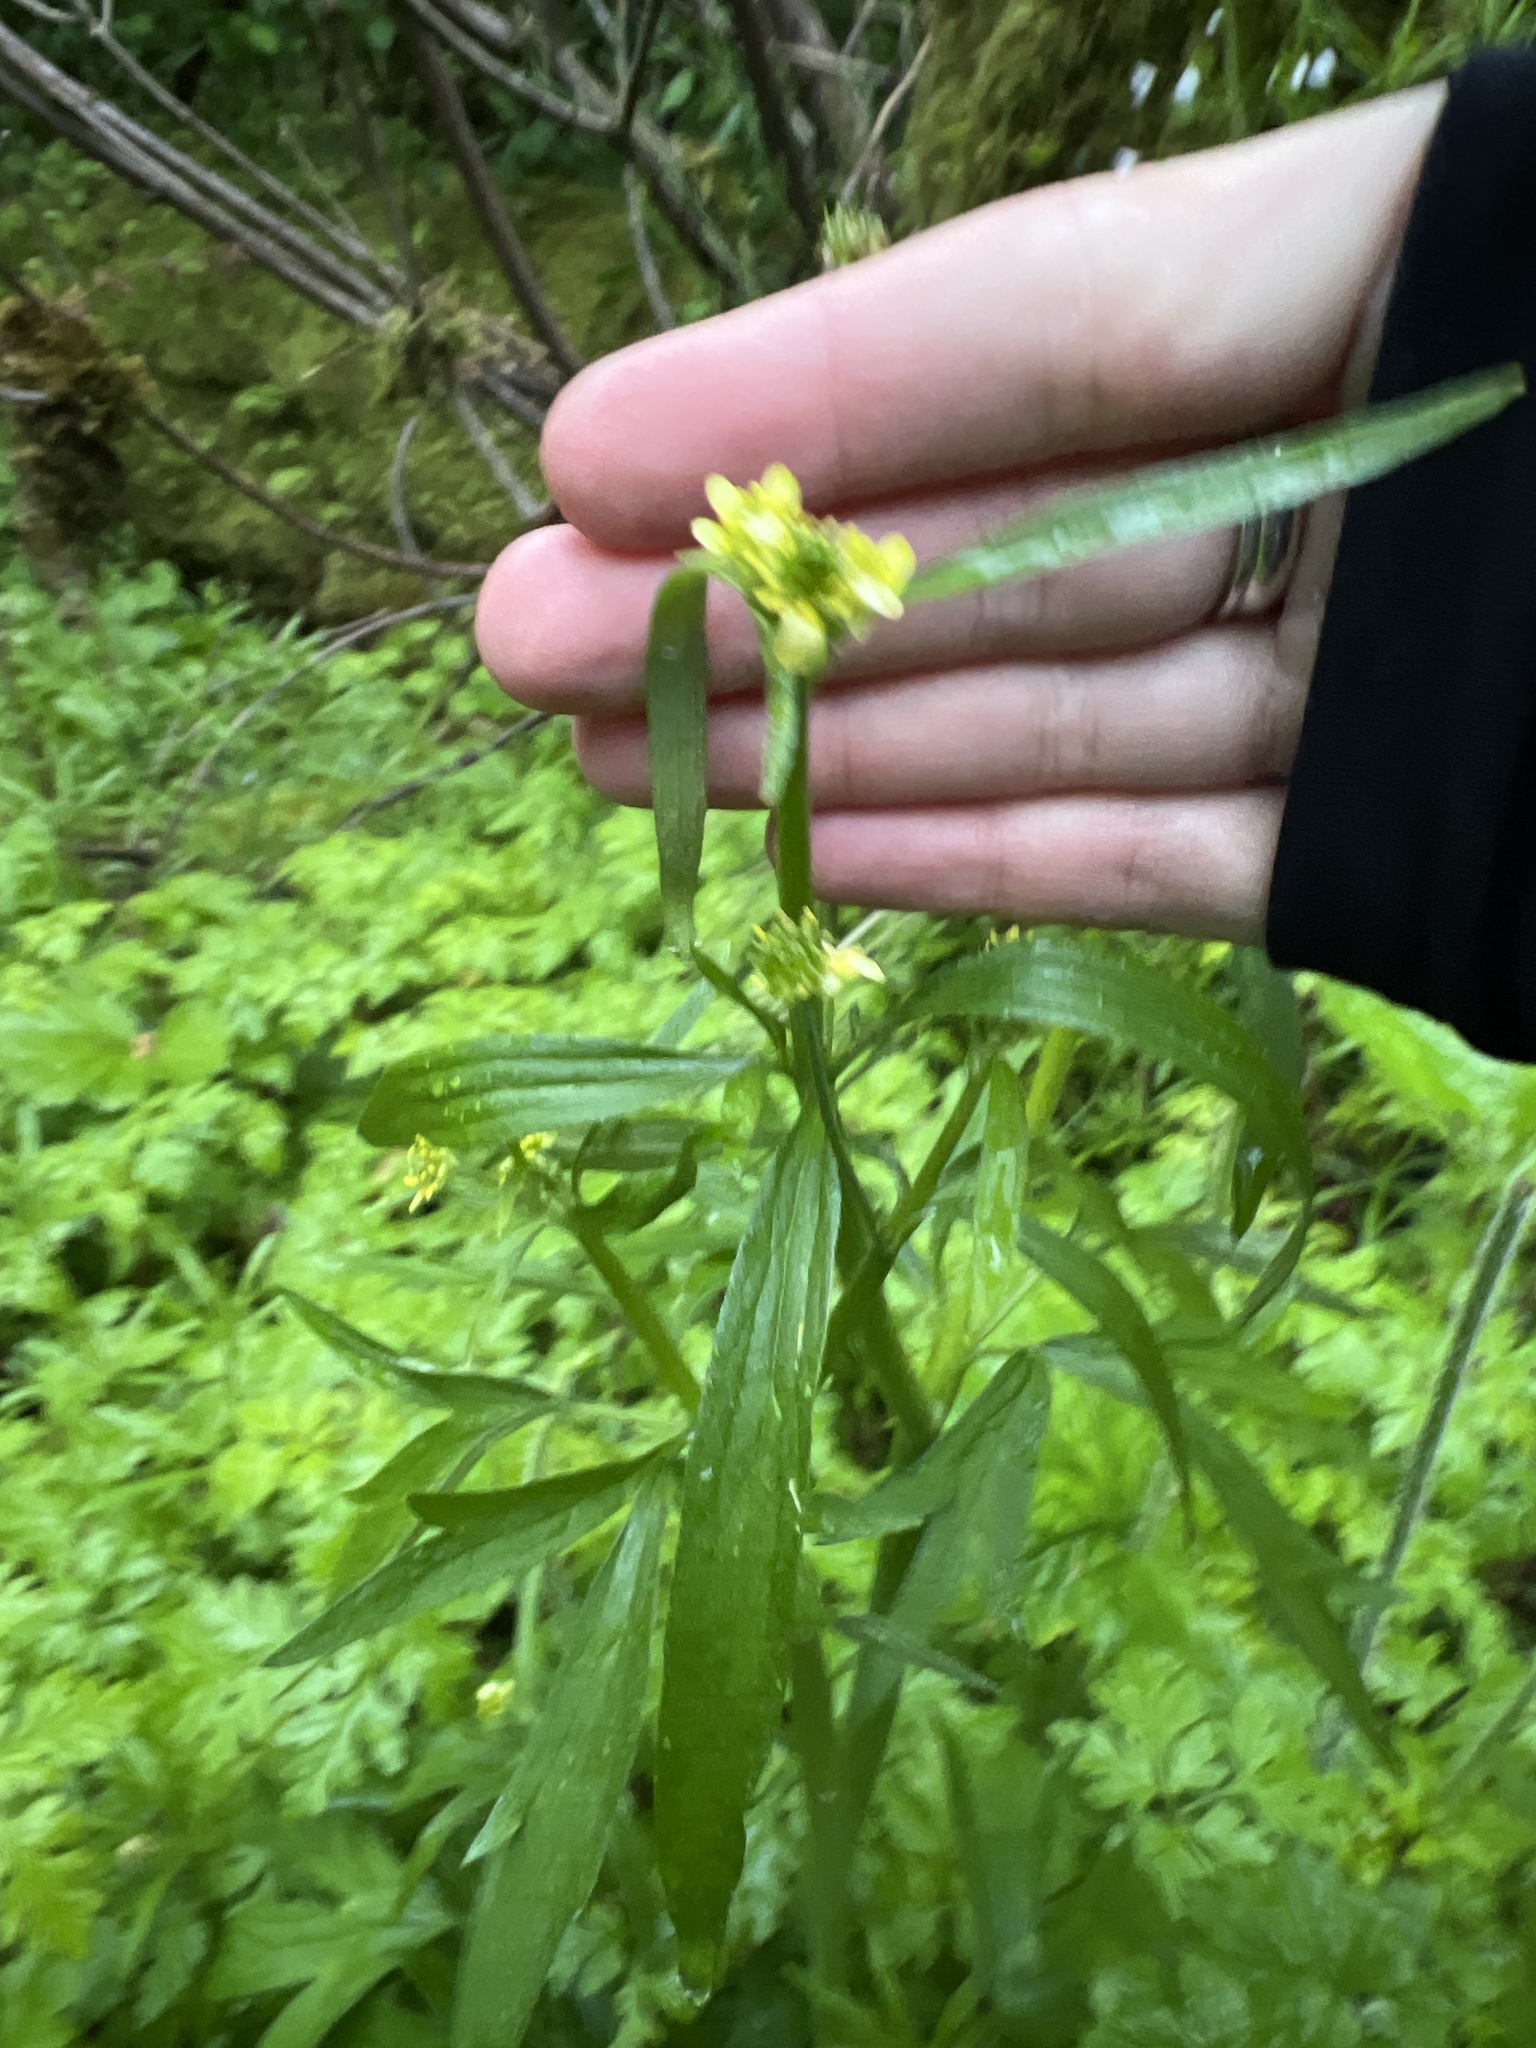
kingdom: Plantae
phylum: Tracheophyta
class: Magnoliopsida
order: Ranunculales
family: Ranunculaceae
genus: Ranunculus
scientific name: Ranunculus uncinatus
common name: Little buttercup
